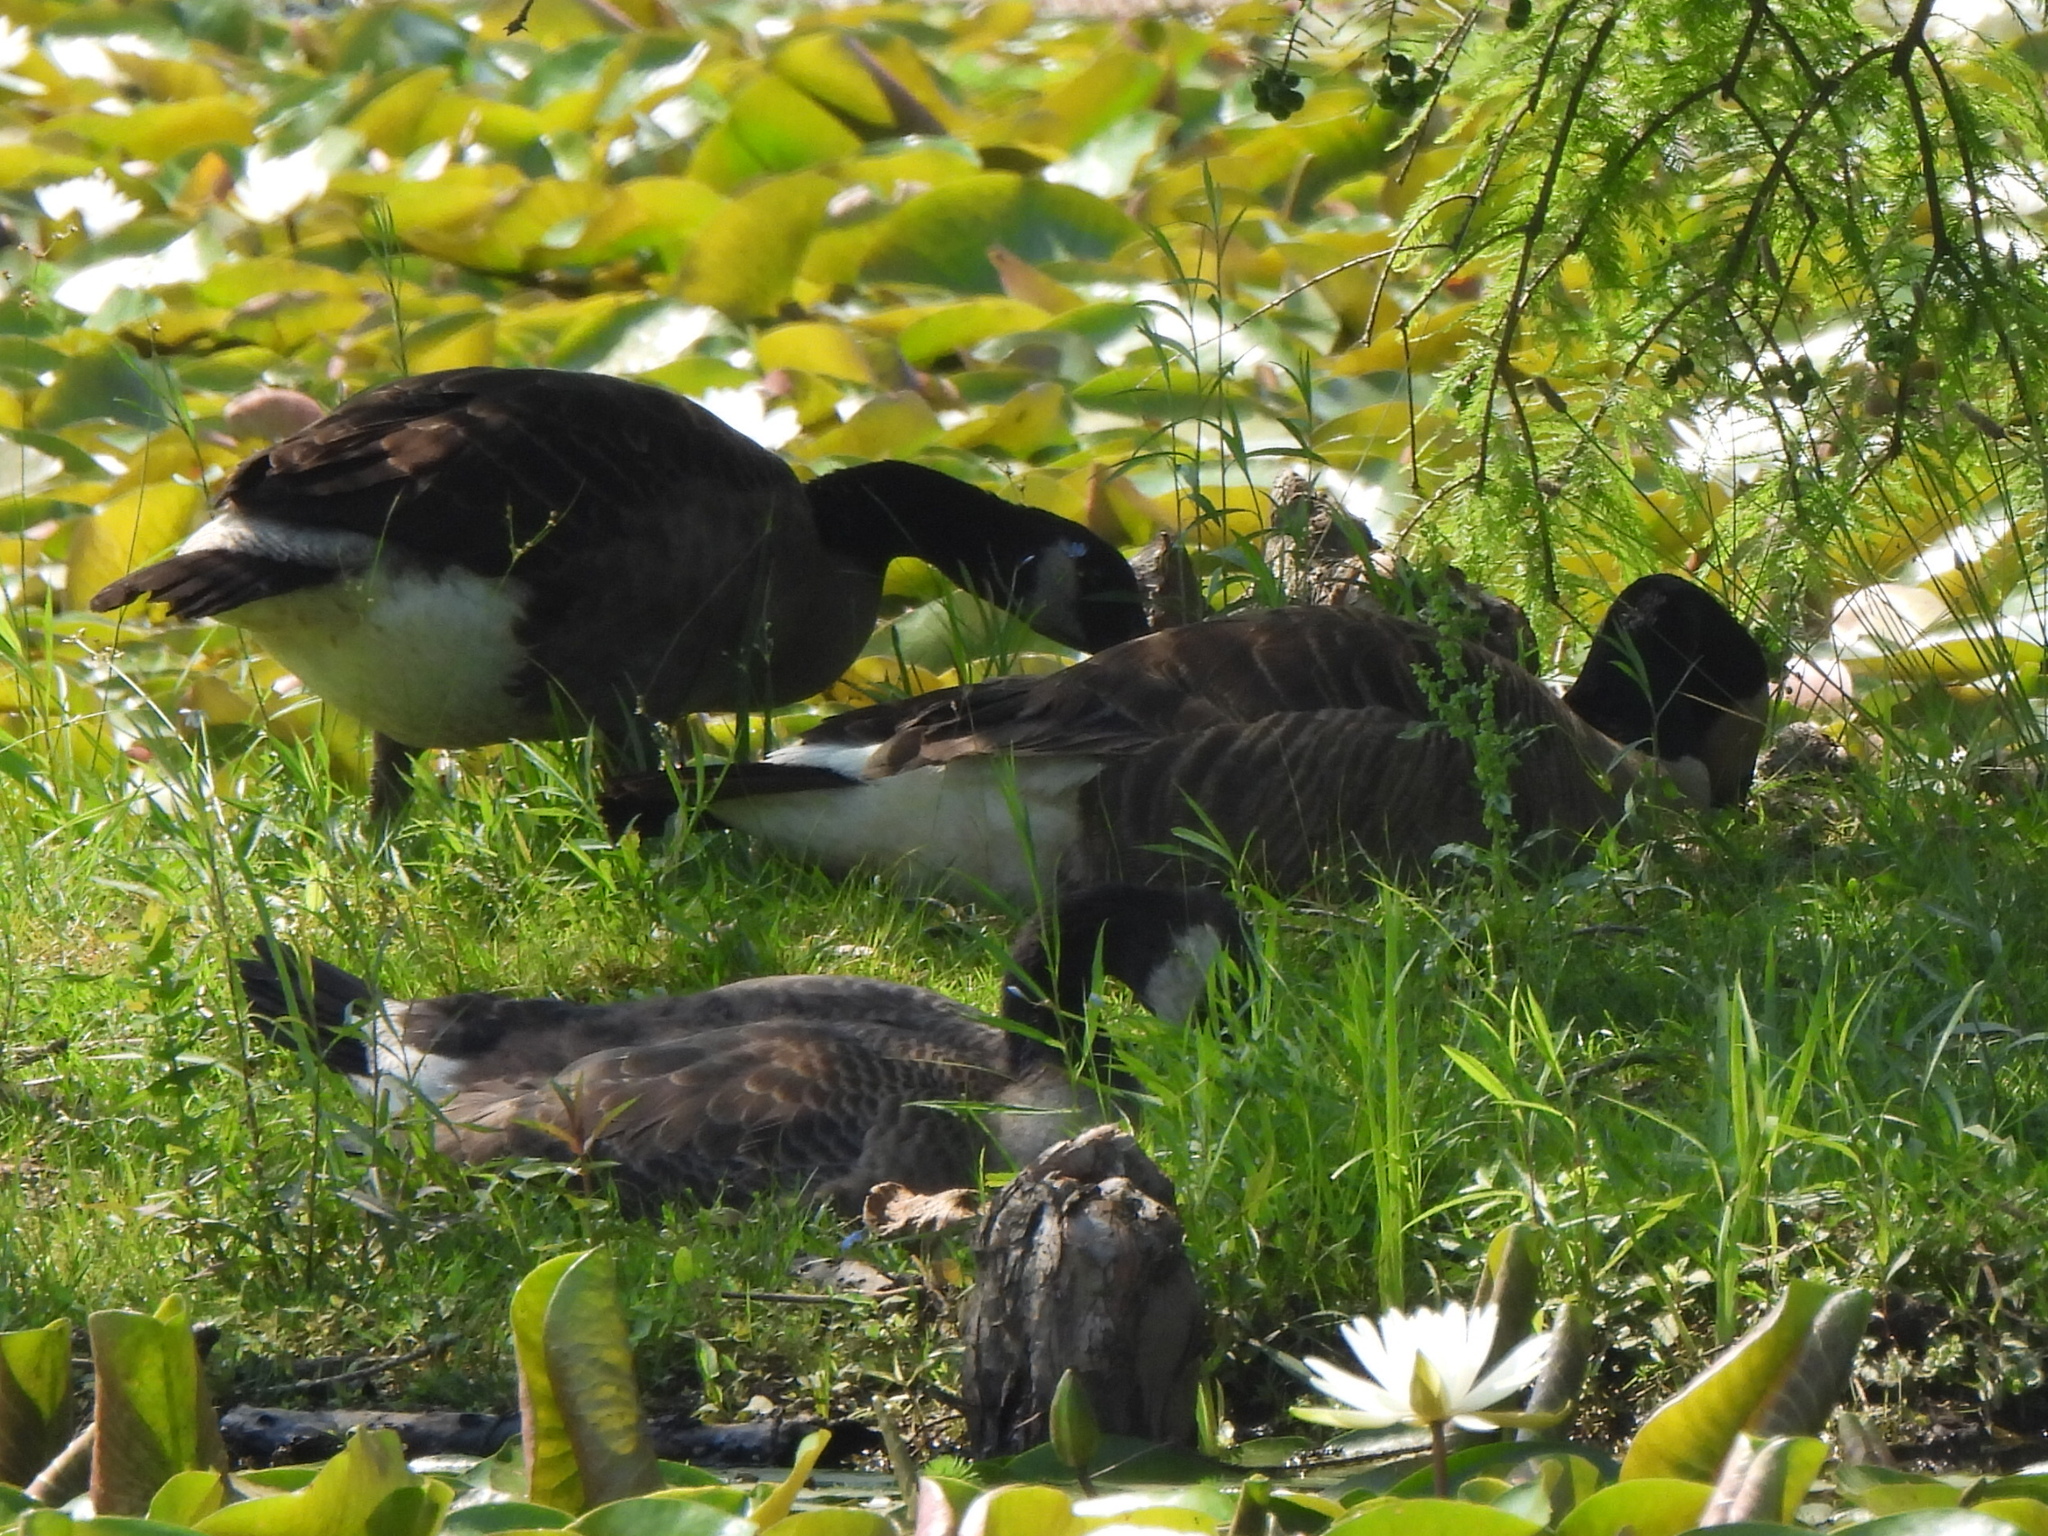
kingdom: Animalia
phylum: Chordata
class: Aves
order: Anseriformes
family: Anatidae
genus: Branta
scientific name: Branta canadensis
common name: Canada goose
